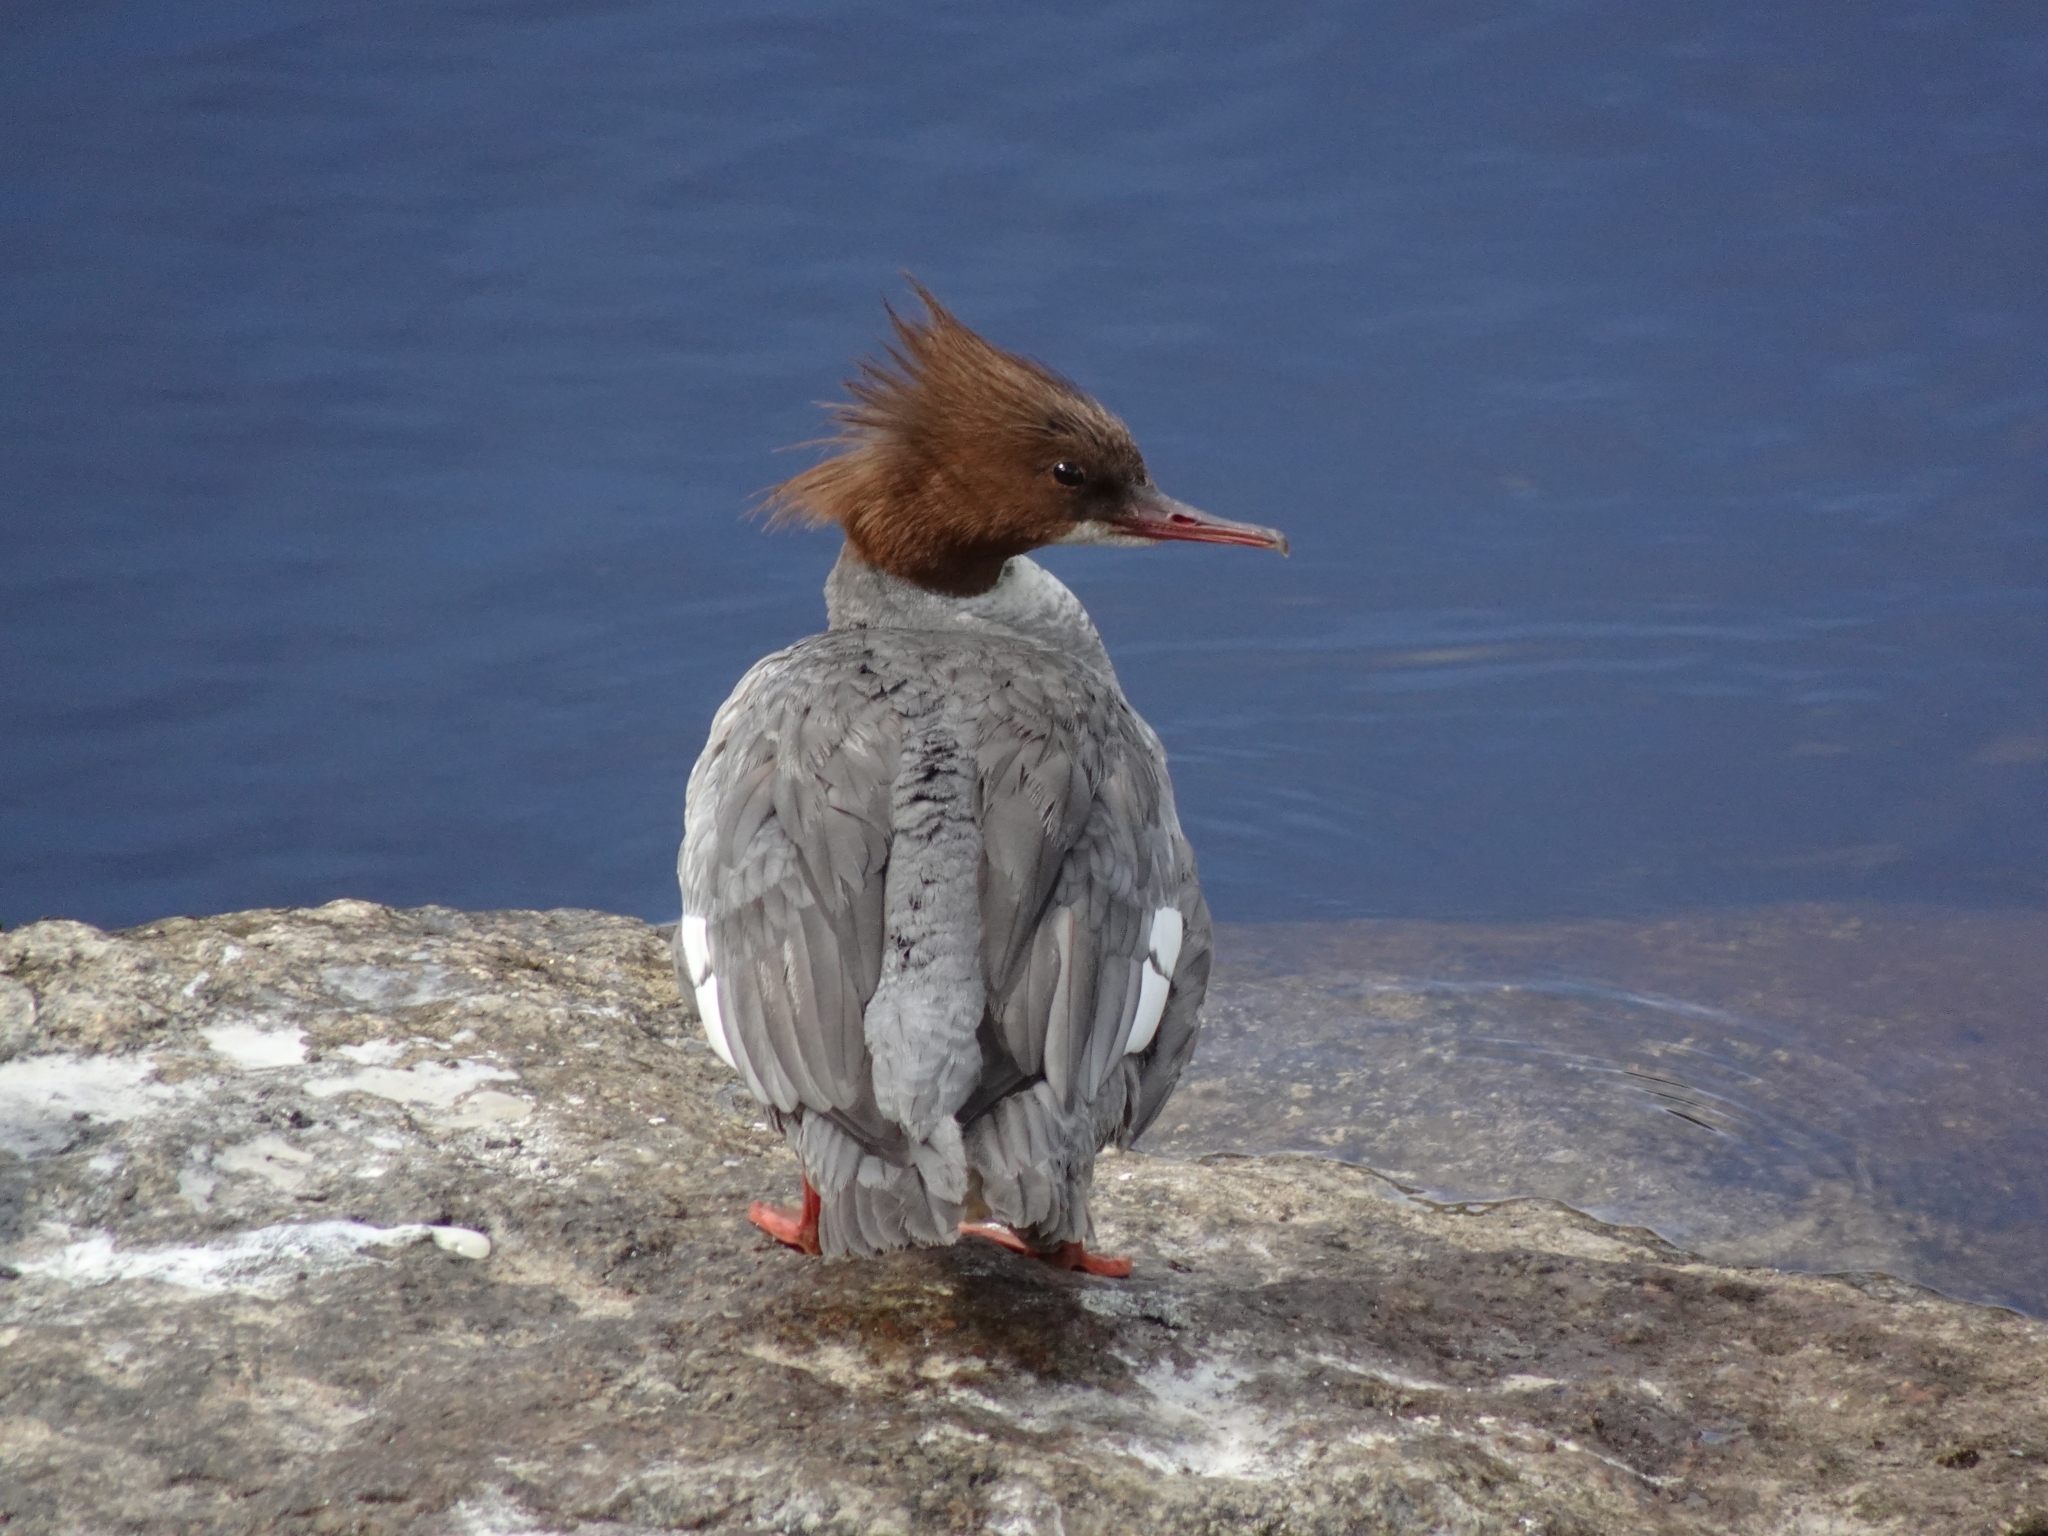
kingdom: Animalia
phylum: Chordata
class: Aves
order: Anseriformes
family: Anatidae
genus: Mergus
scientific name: Mergus merganser
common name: Common merganser
